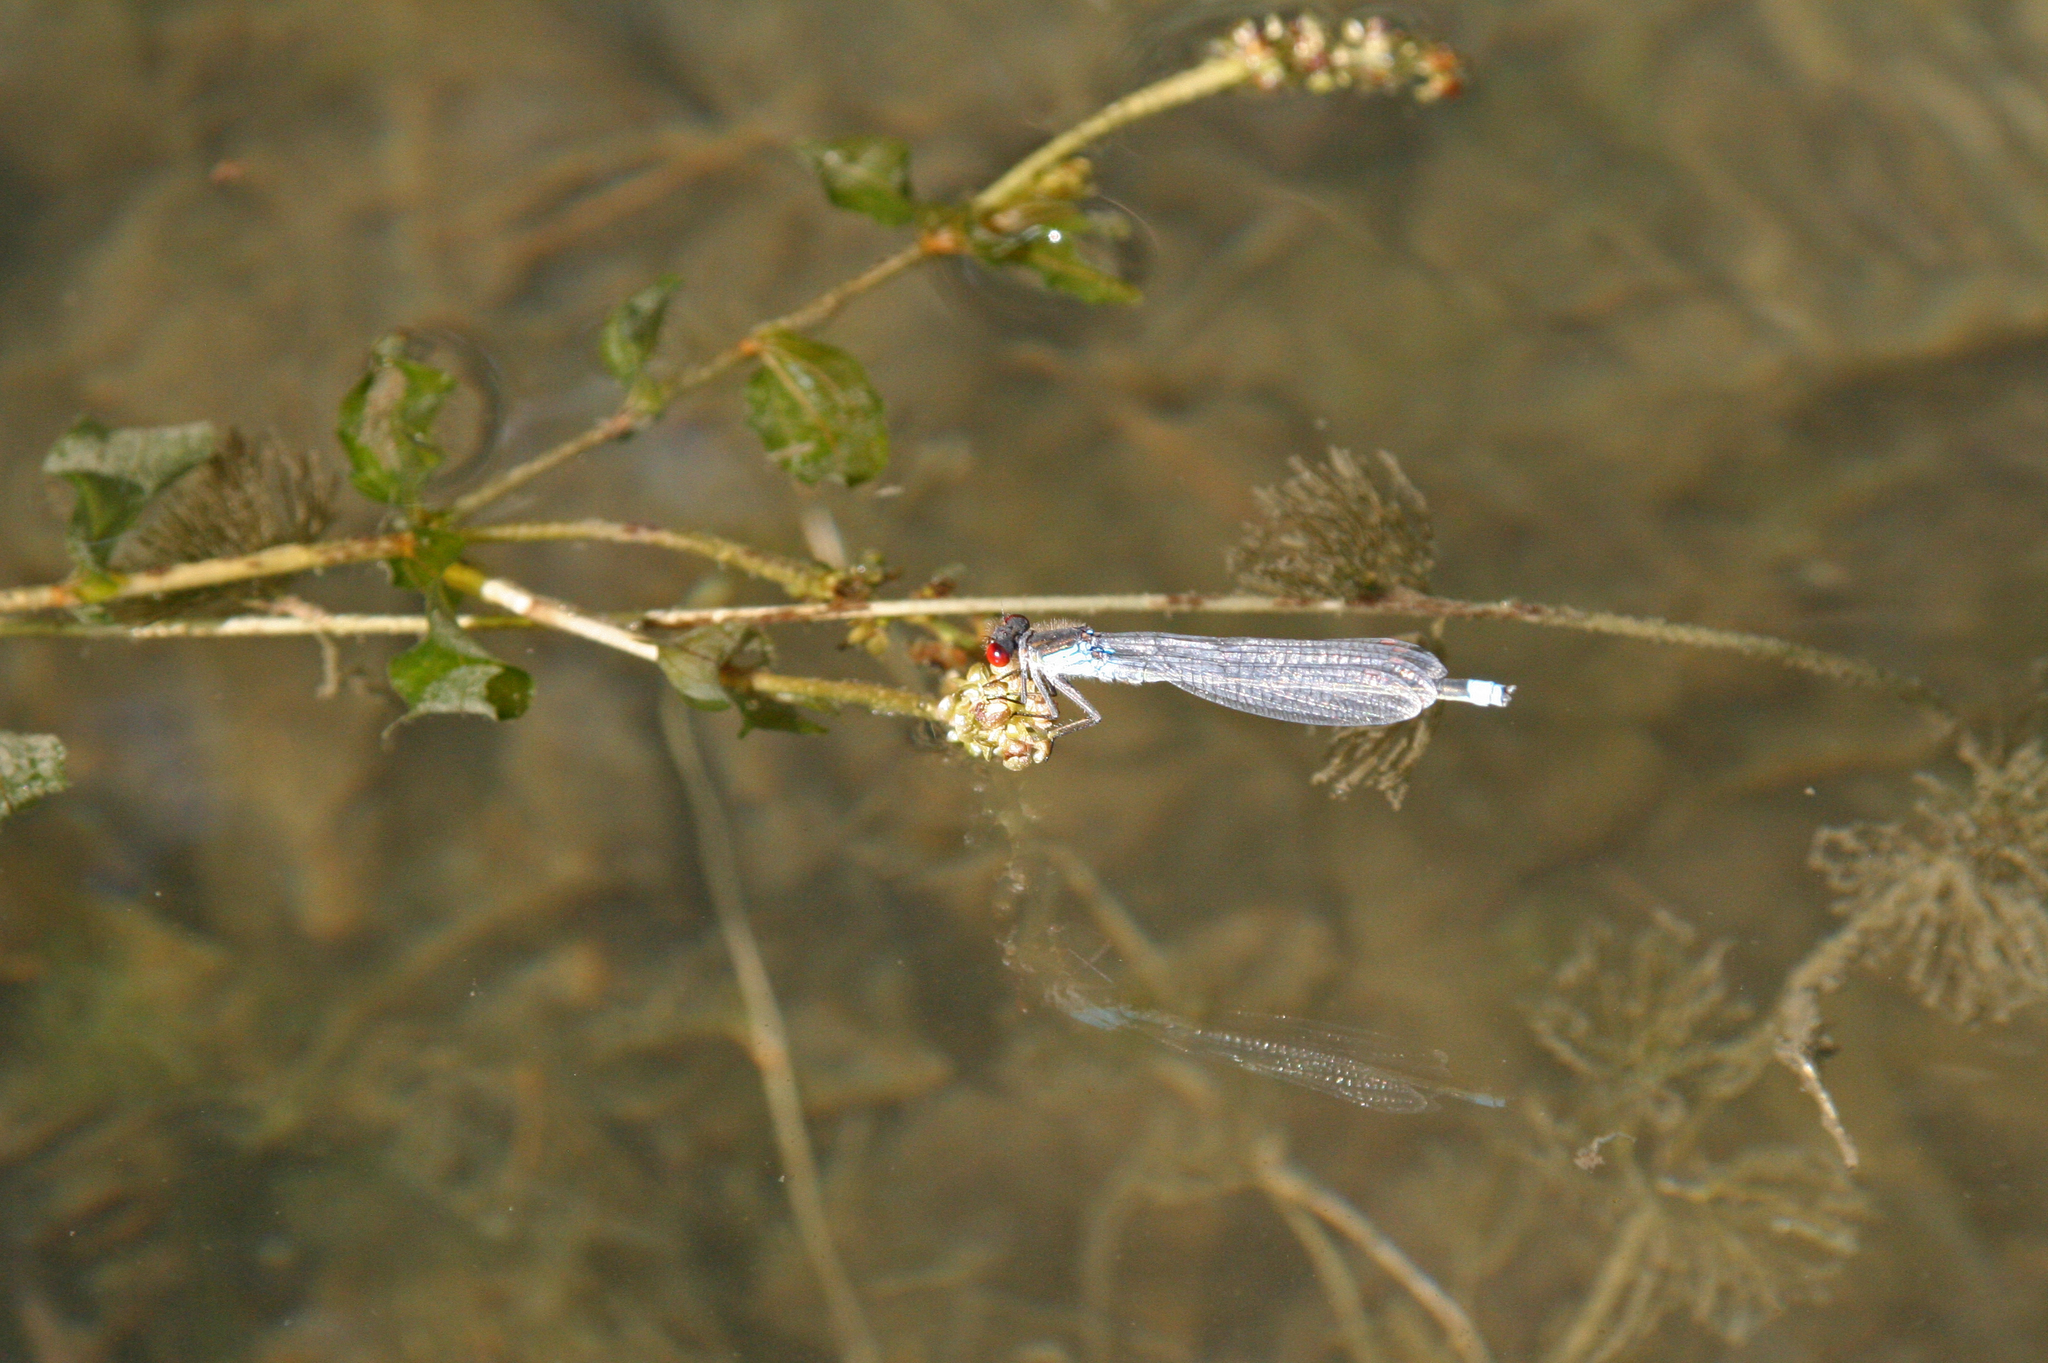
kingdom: Animalia
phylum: Arthropoda
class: Insecta
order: Odonata
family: Coenagrionidae
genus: Erythromma
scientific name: Erythromma najas
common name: Red-eyed damselfly
